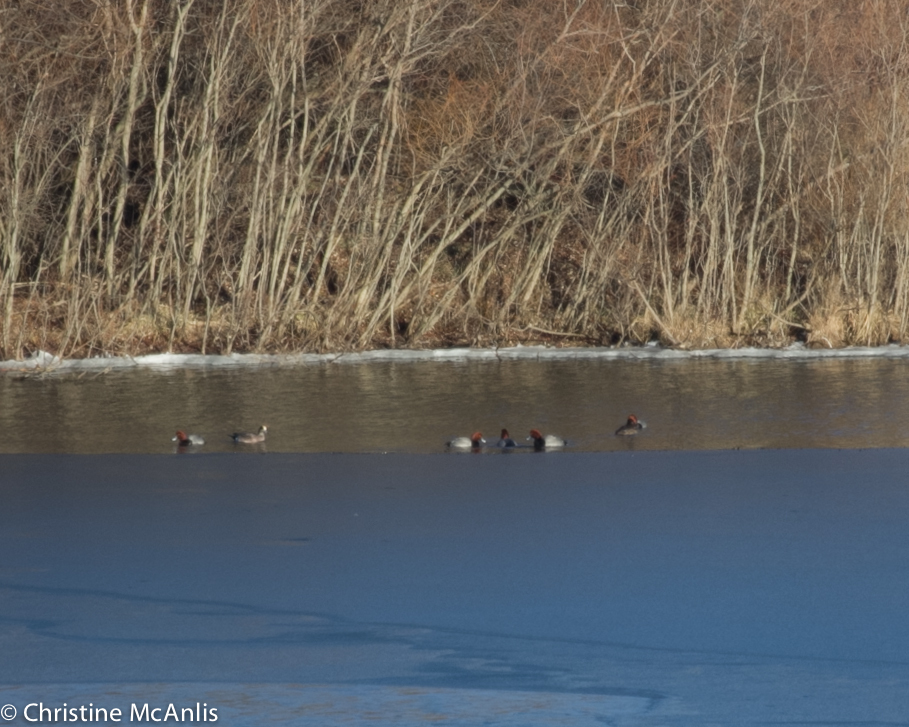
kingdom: Animalia
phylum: Chordata
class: Aves
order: Anseriformes
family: Anatidae
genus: Aythya
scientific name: Aythya americana
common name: Redhead
